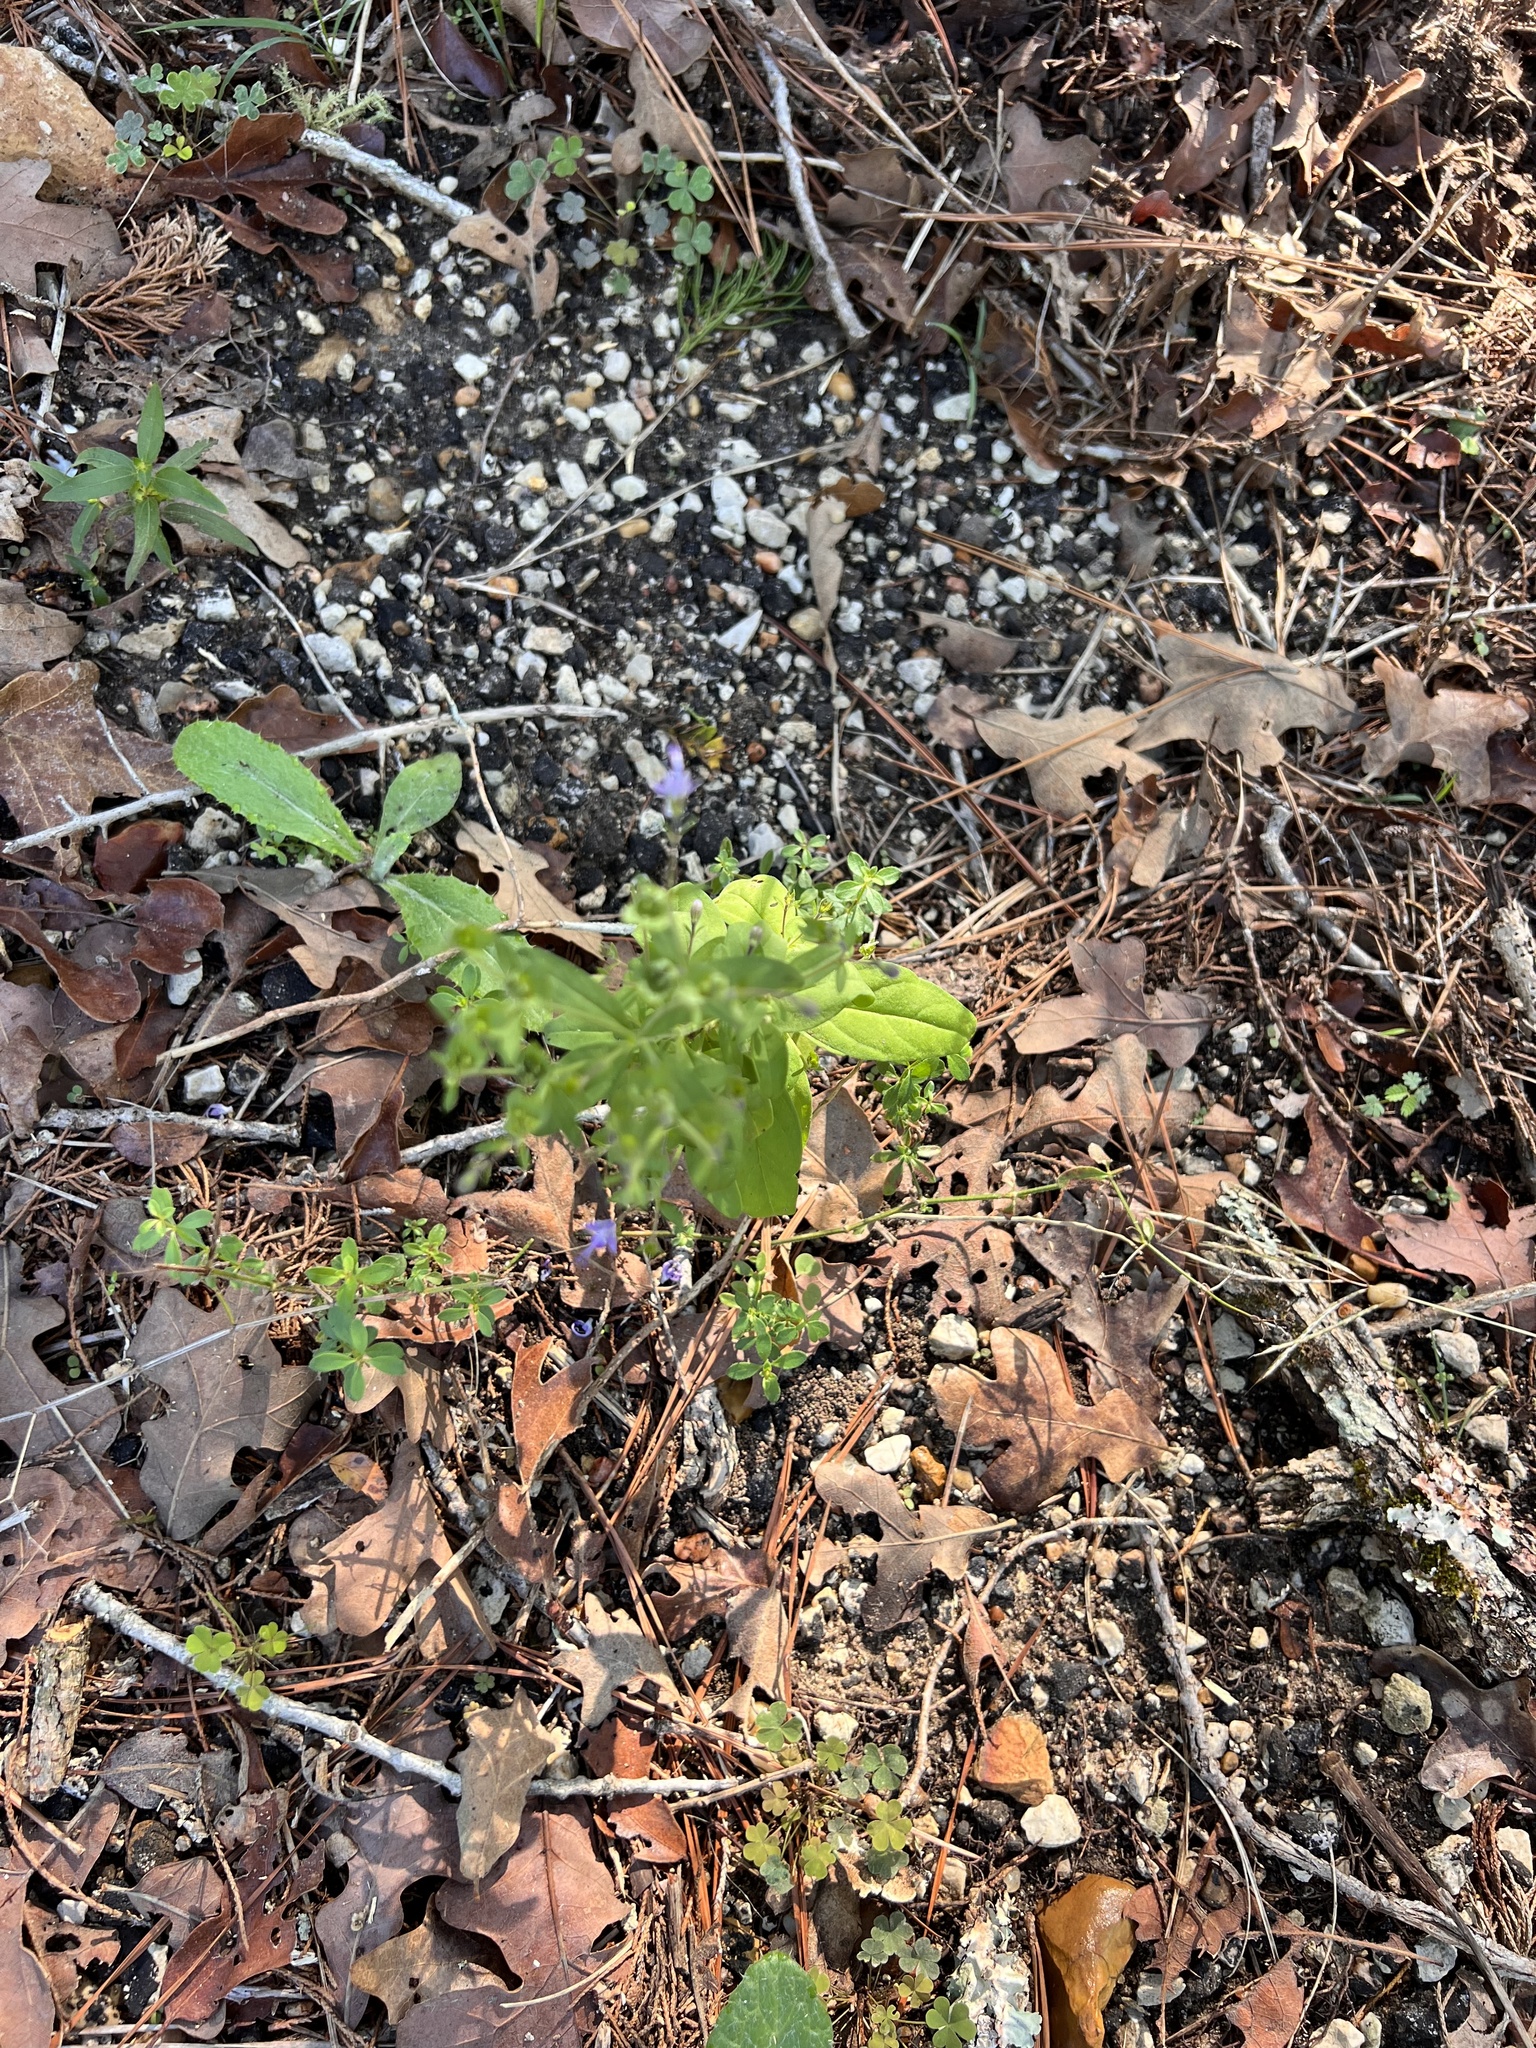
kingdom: Plantae
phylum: Tracheophyta
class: Magnoliopsida
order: Lamiales
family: Lamiaceae
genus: Trichostema
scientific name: Trichostema dichotomum
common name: Bastard pennyroyal
